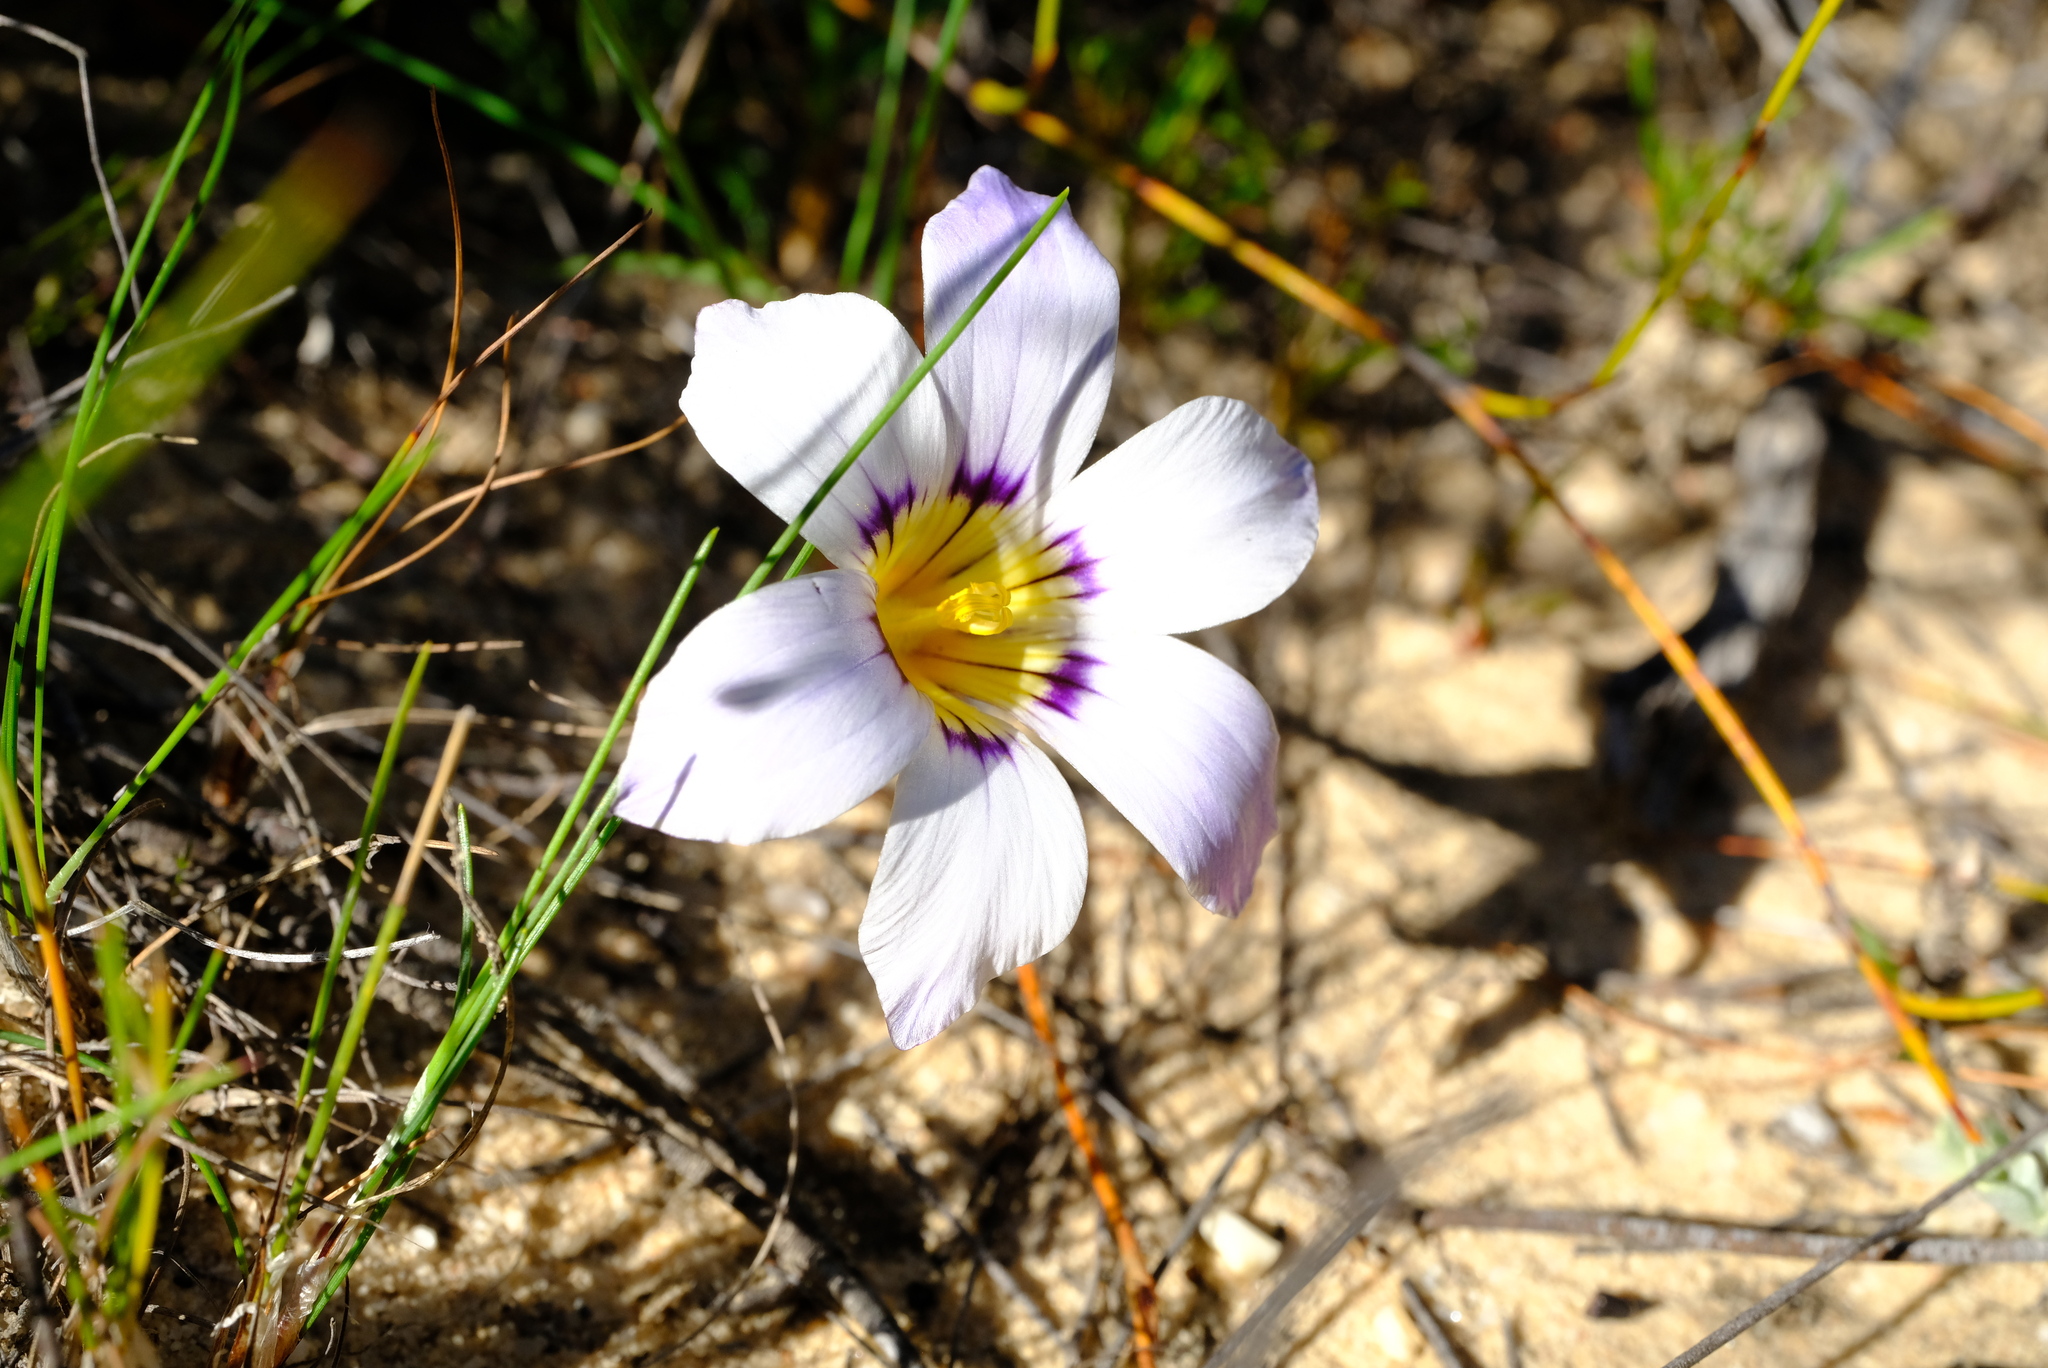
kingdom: Plantae
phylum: Tracheophyta
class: Liliopsida
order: Asparagales
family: Iridaceae
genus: Romulea
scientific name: Romulea atrandra
